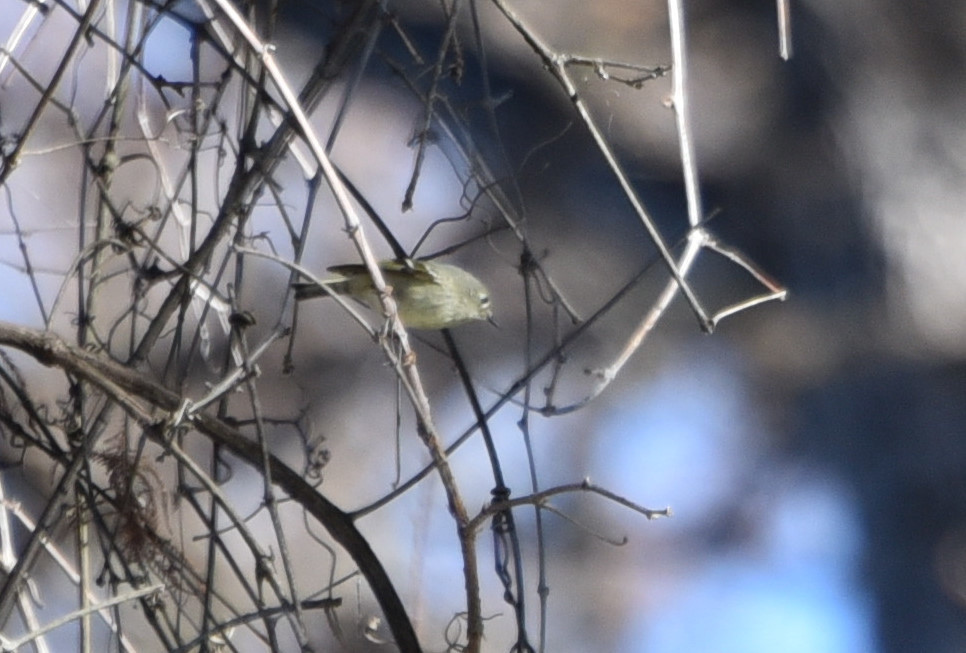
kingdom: Animalia
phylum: Chordata
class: Aves
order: Passeriformes
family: Regulidae
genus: Regulus
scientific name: Regulus calendula
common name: Ruby-crowned kinglet
